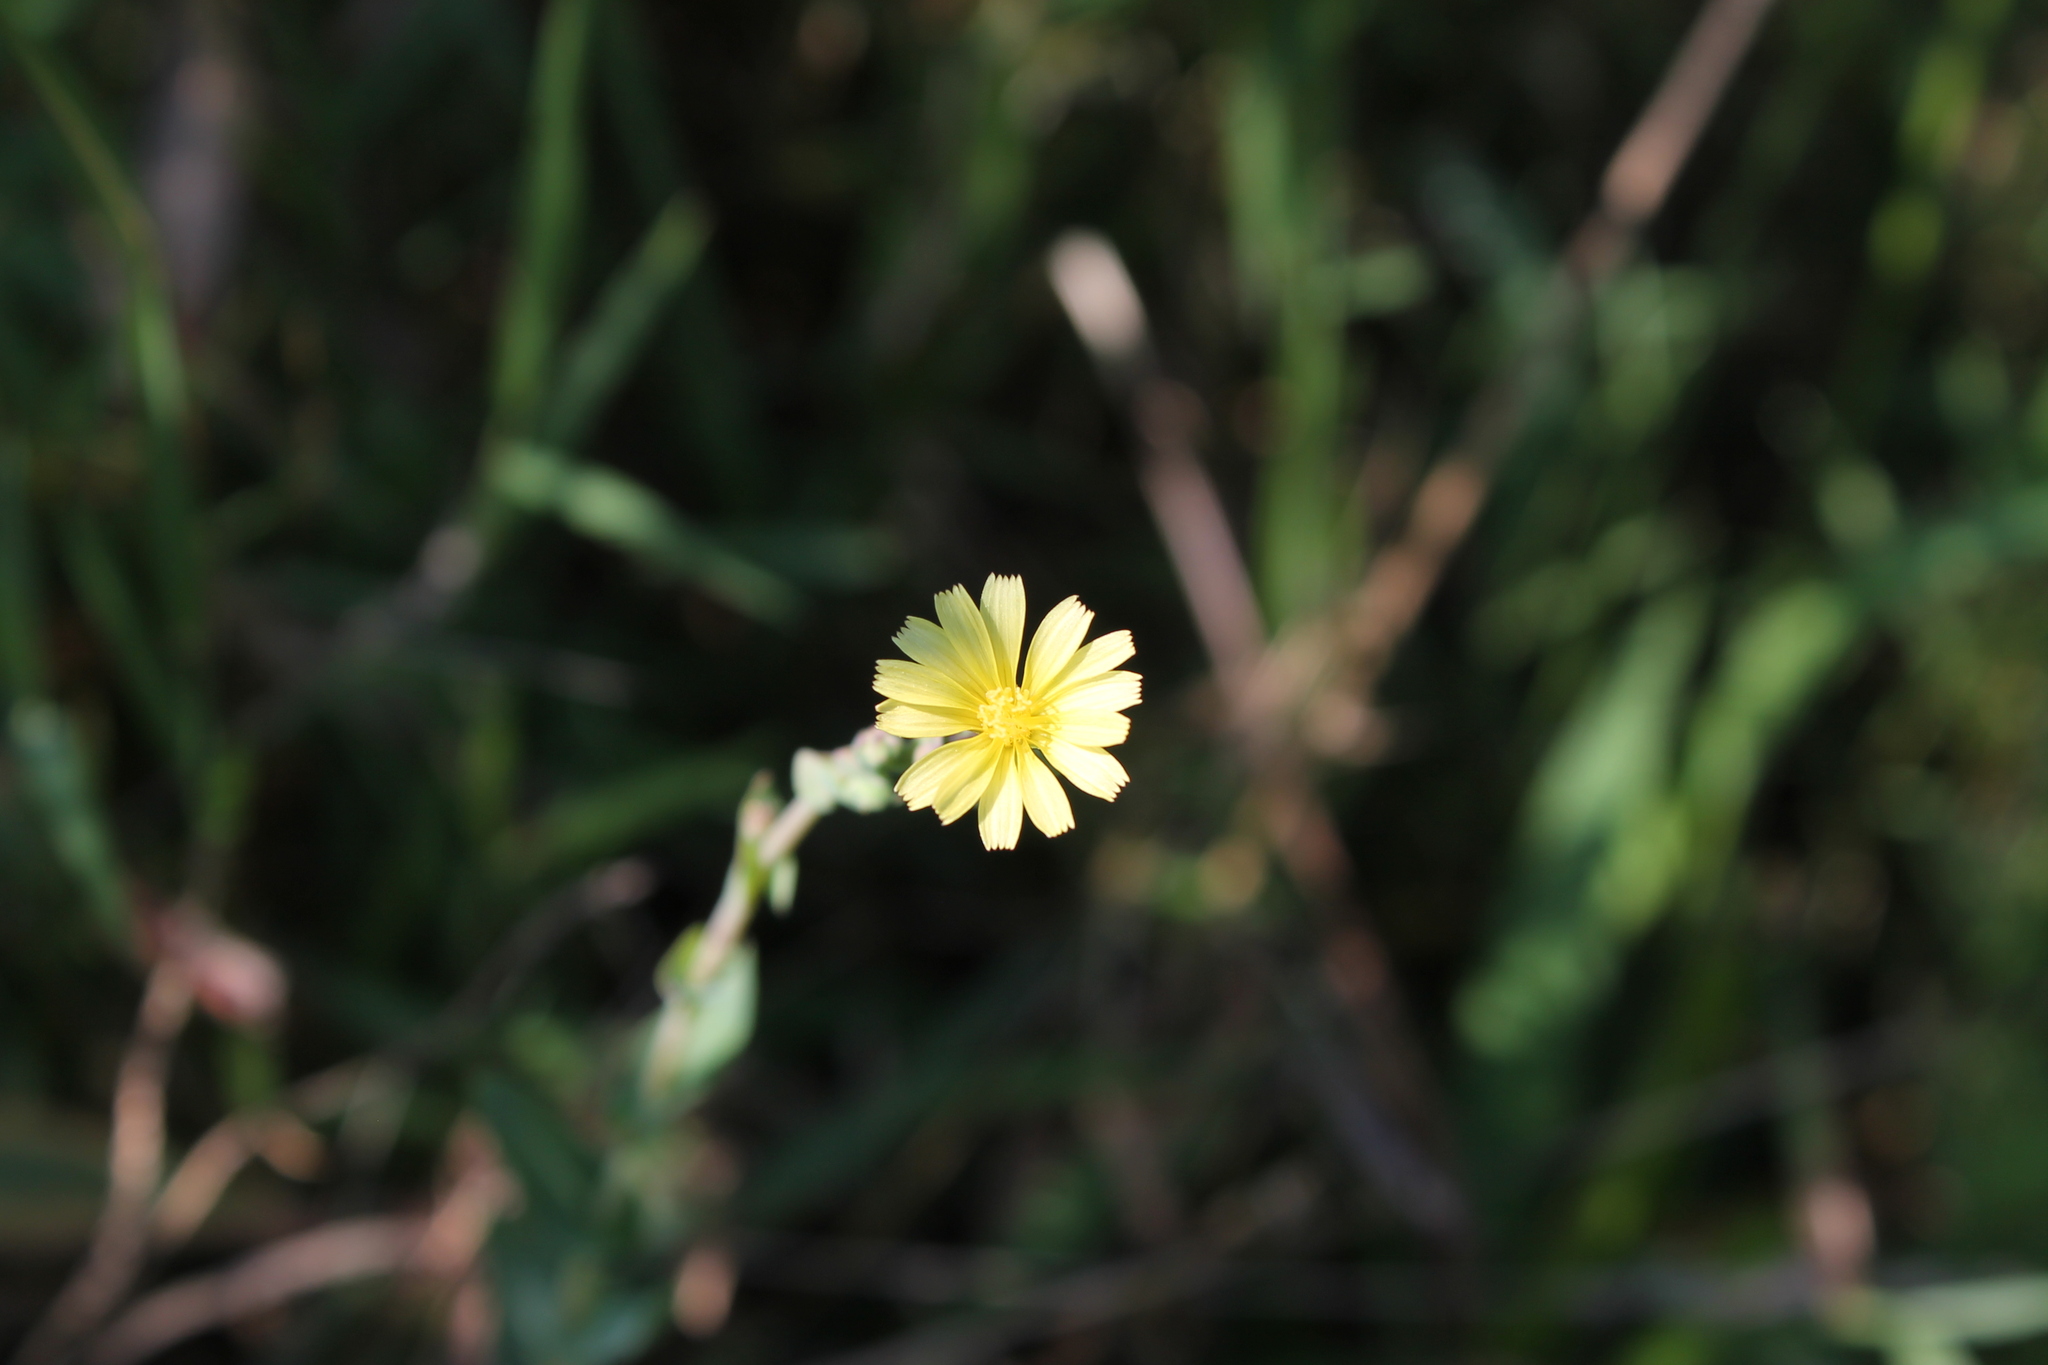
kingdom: Plantae
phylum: Tracheophyta
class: Magnoliopsida
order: Asterales
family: Asteraceae
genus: Lactuca
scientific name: Lactuca serriola
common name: Prickly lettuce
